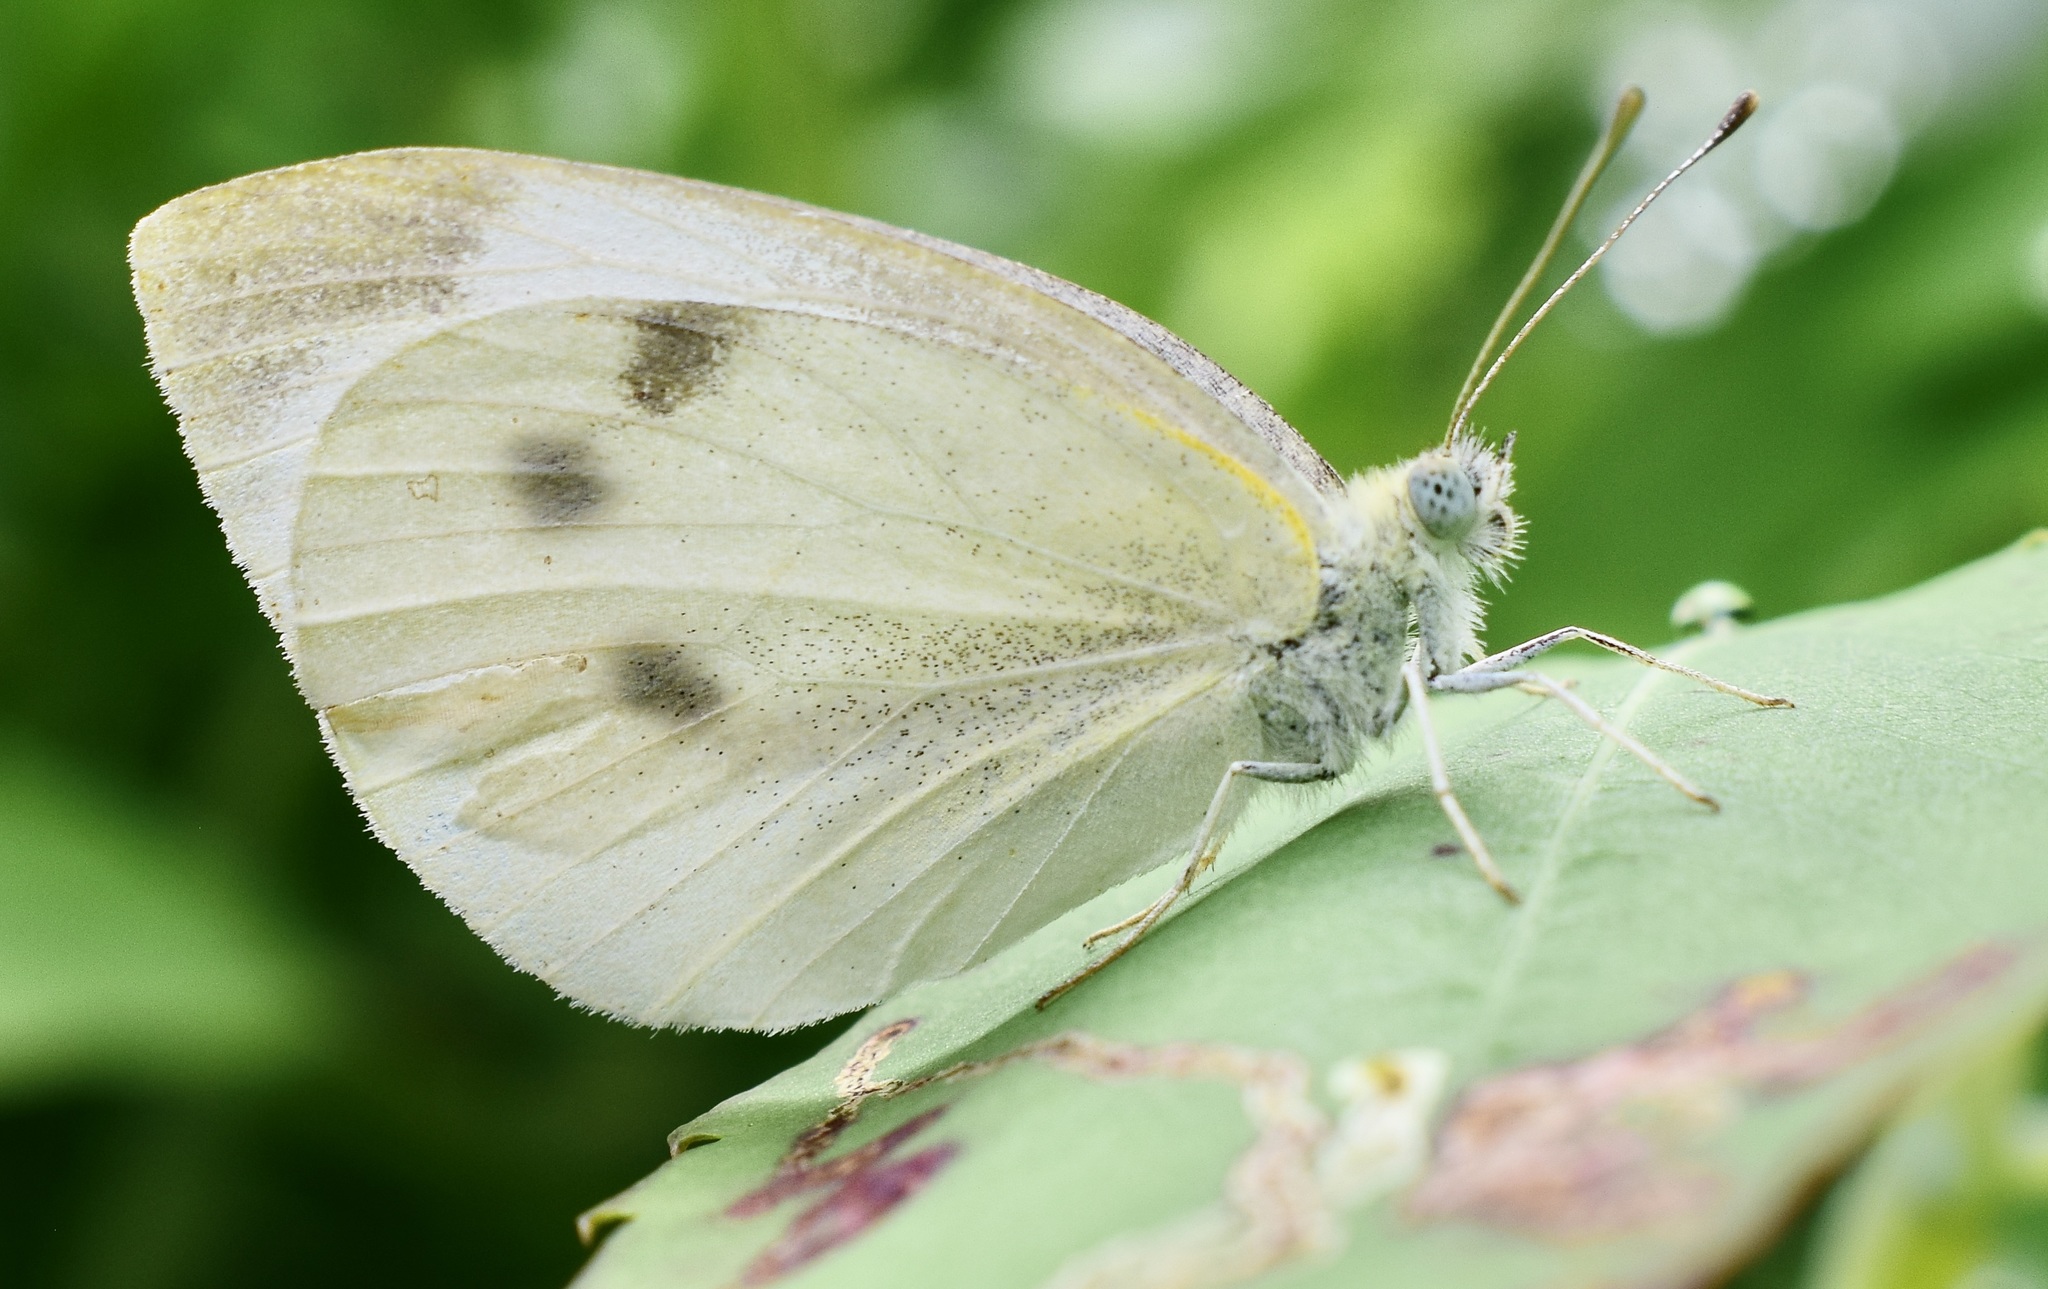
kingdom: Animalia
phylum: Arthropoda
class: Insecta
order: Lepidoptera
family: Pieridae
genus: Pieris
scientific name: Pieris rapae
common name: Small white
